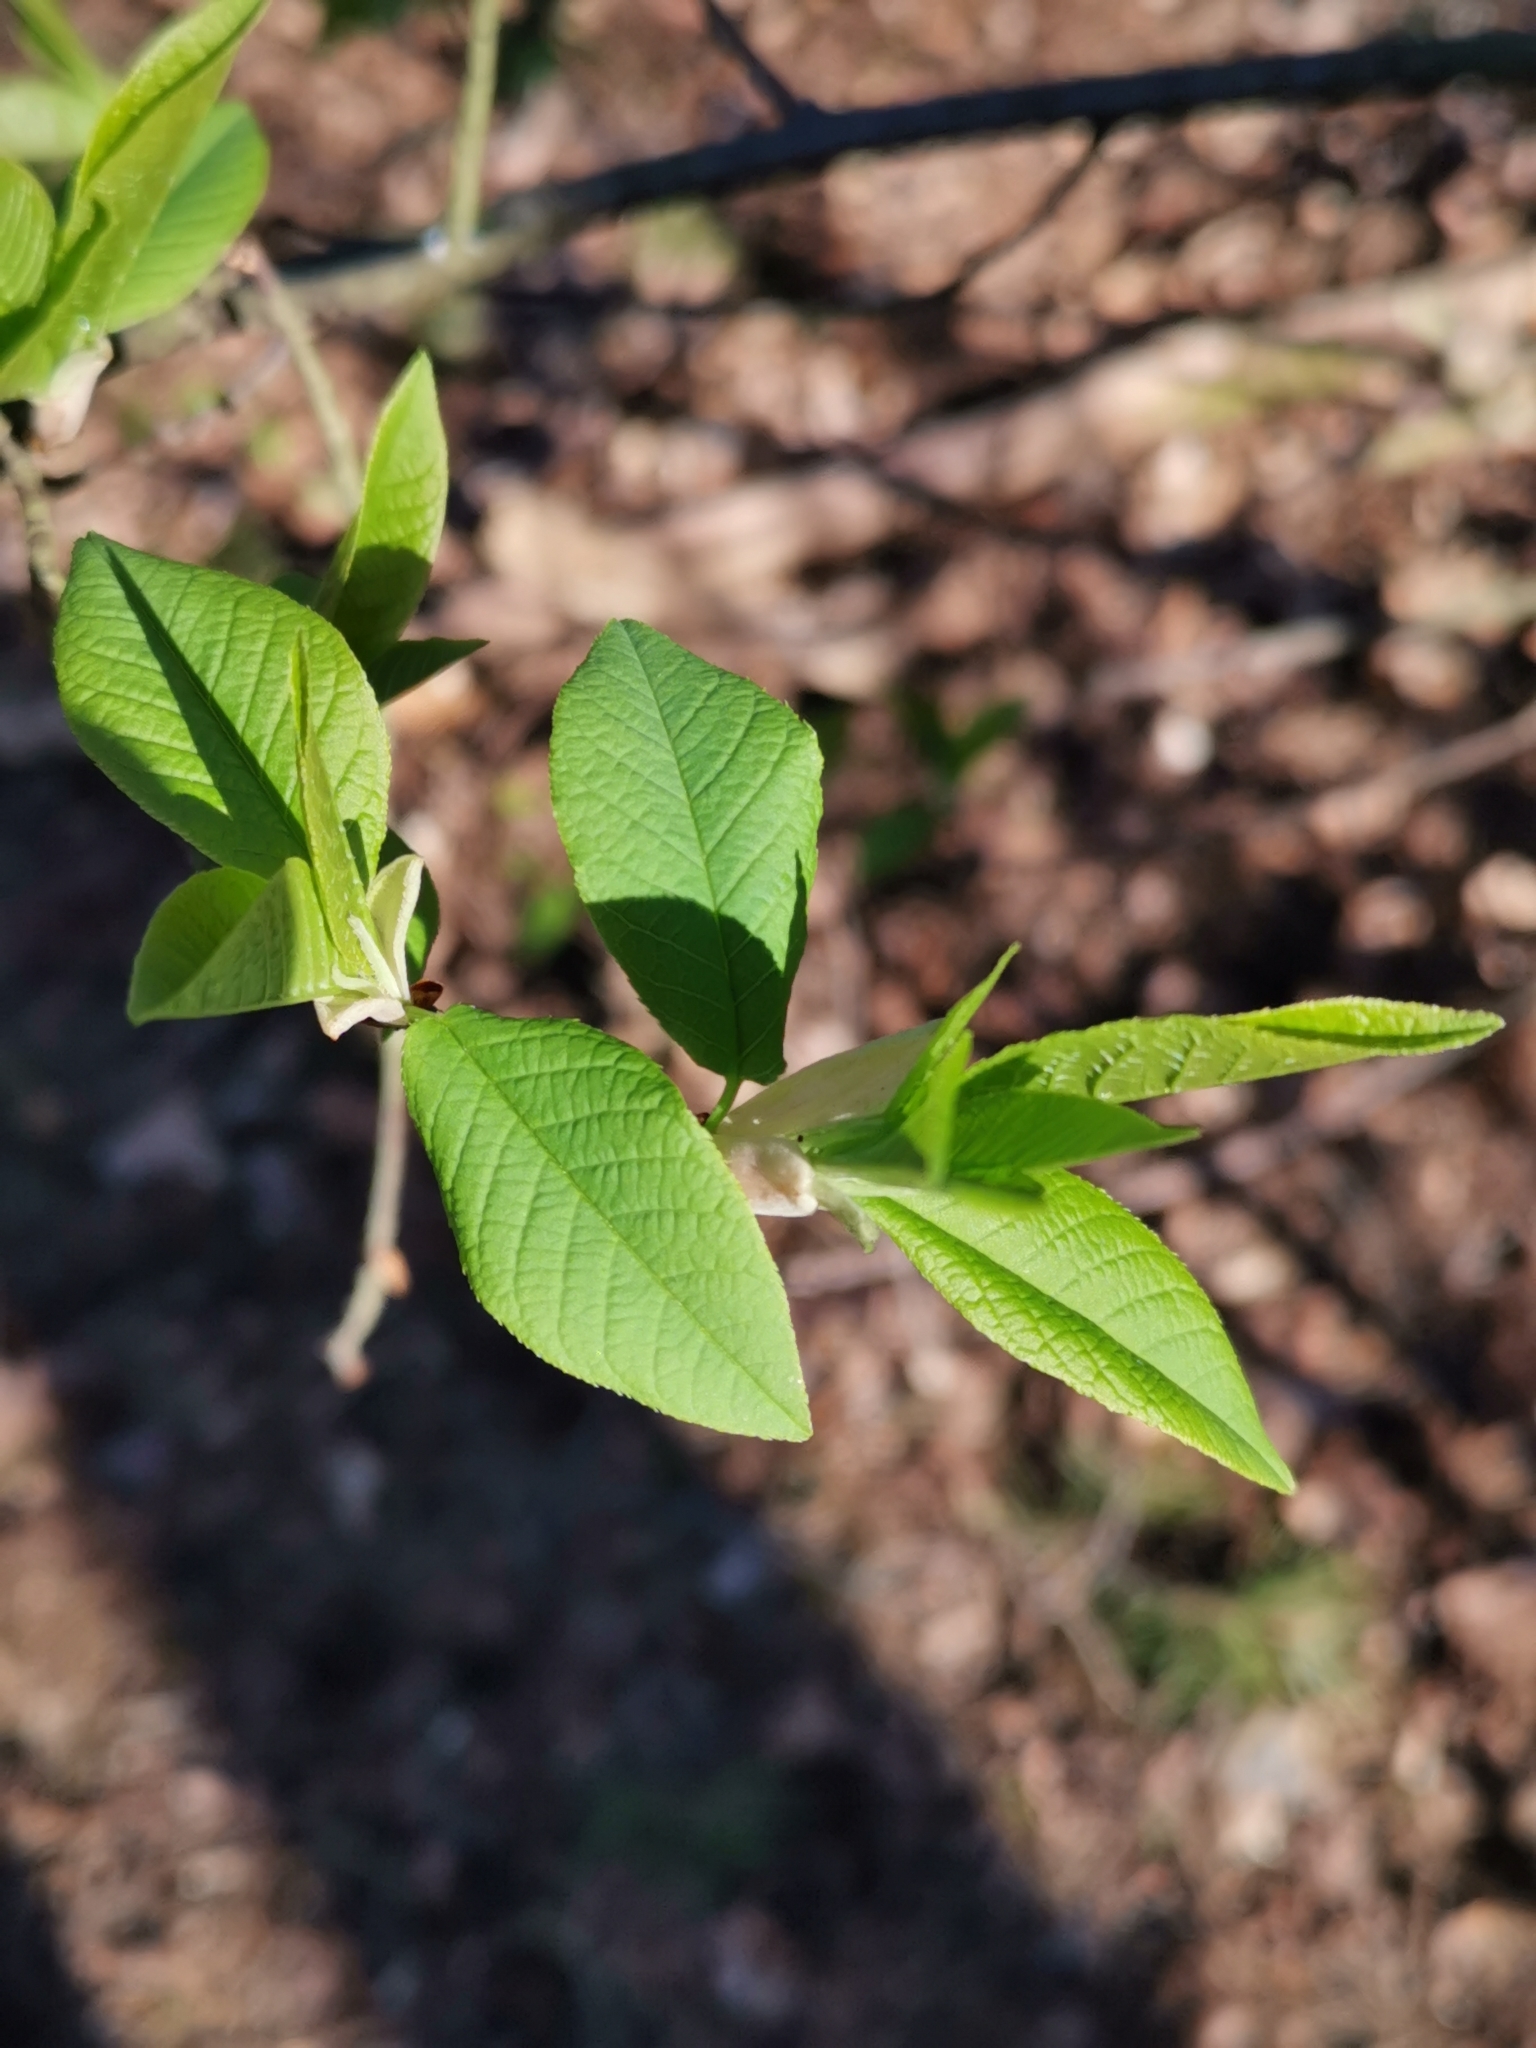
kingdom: Plantae
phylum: Tracheophyta
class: Magnoliopsida
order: Rosales
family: Rosaceae
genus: Prunus
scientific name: Prunus padus
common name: Bird cherry
